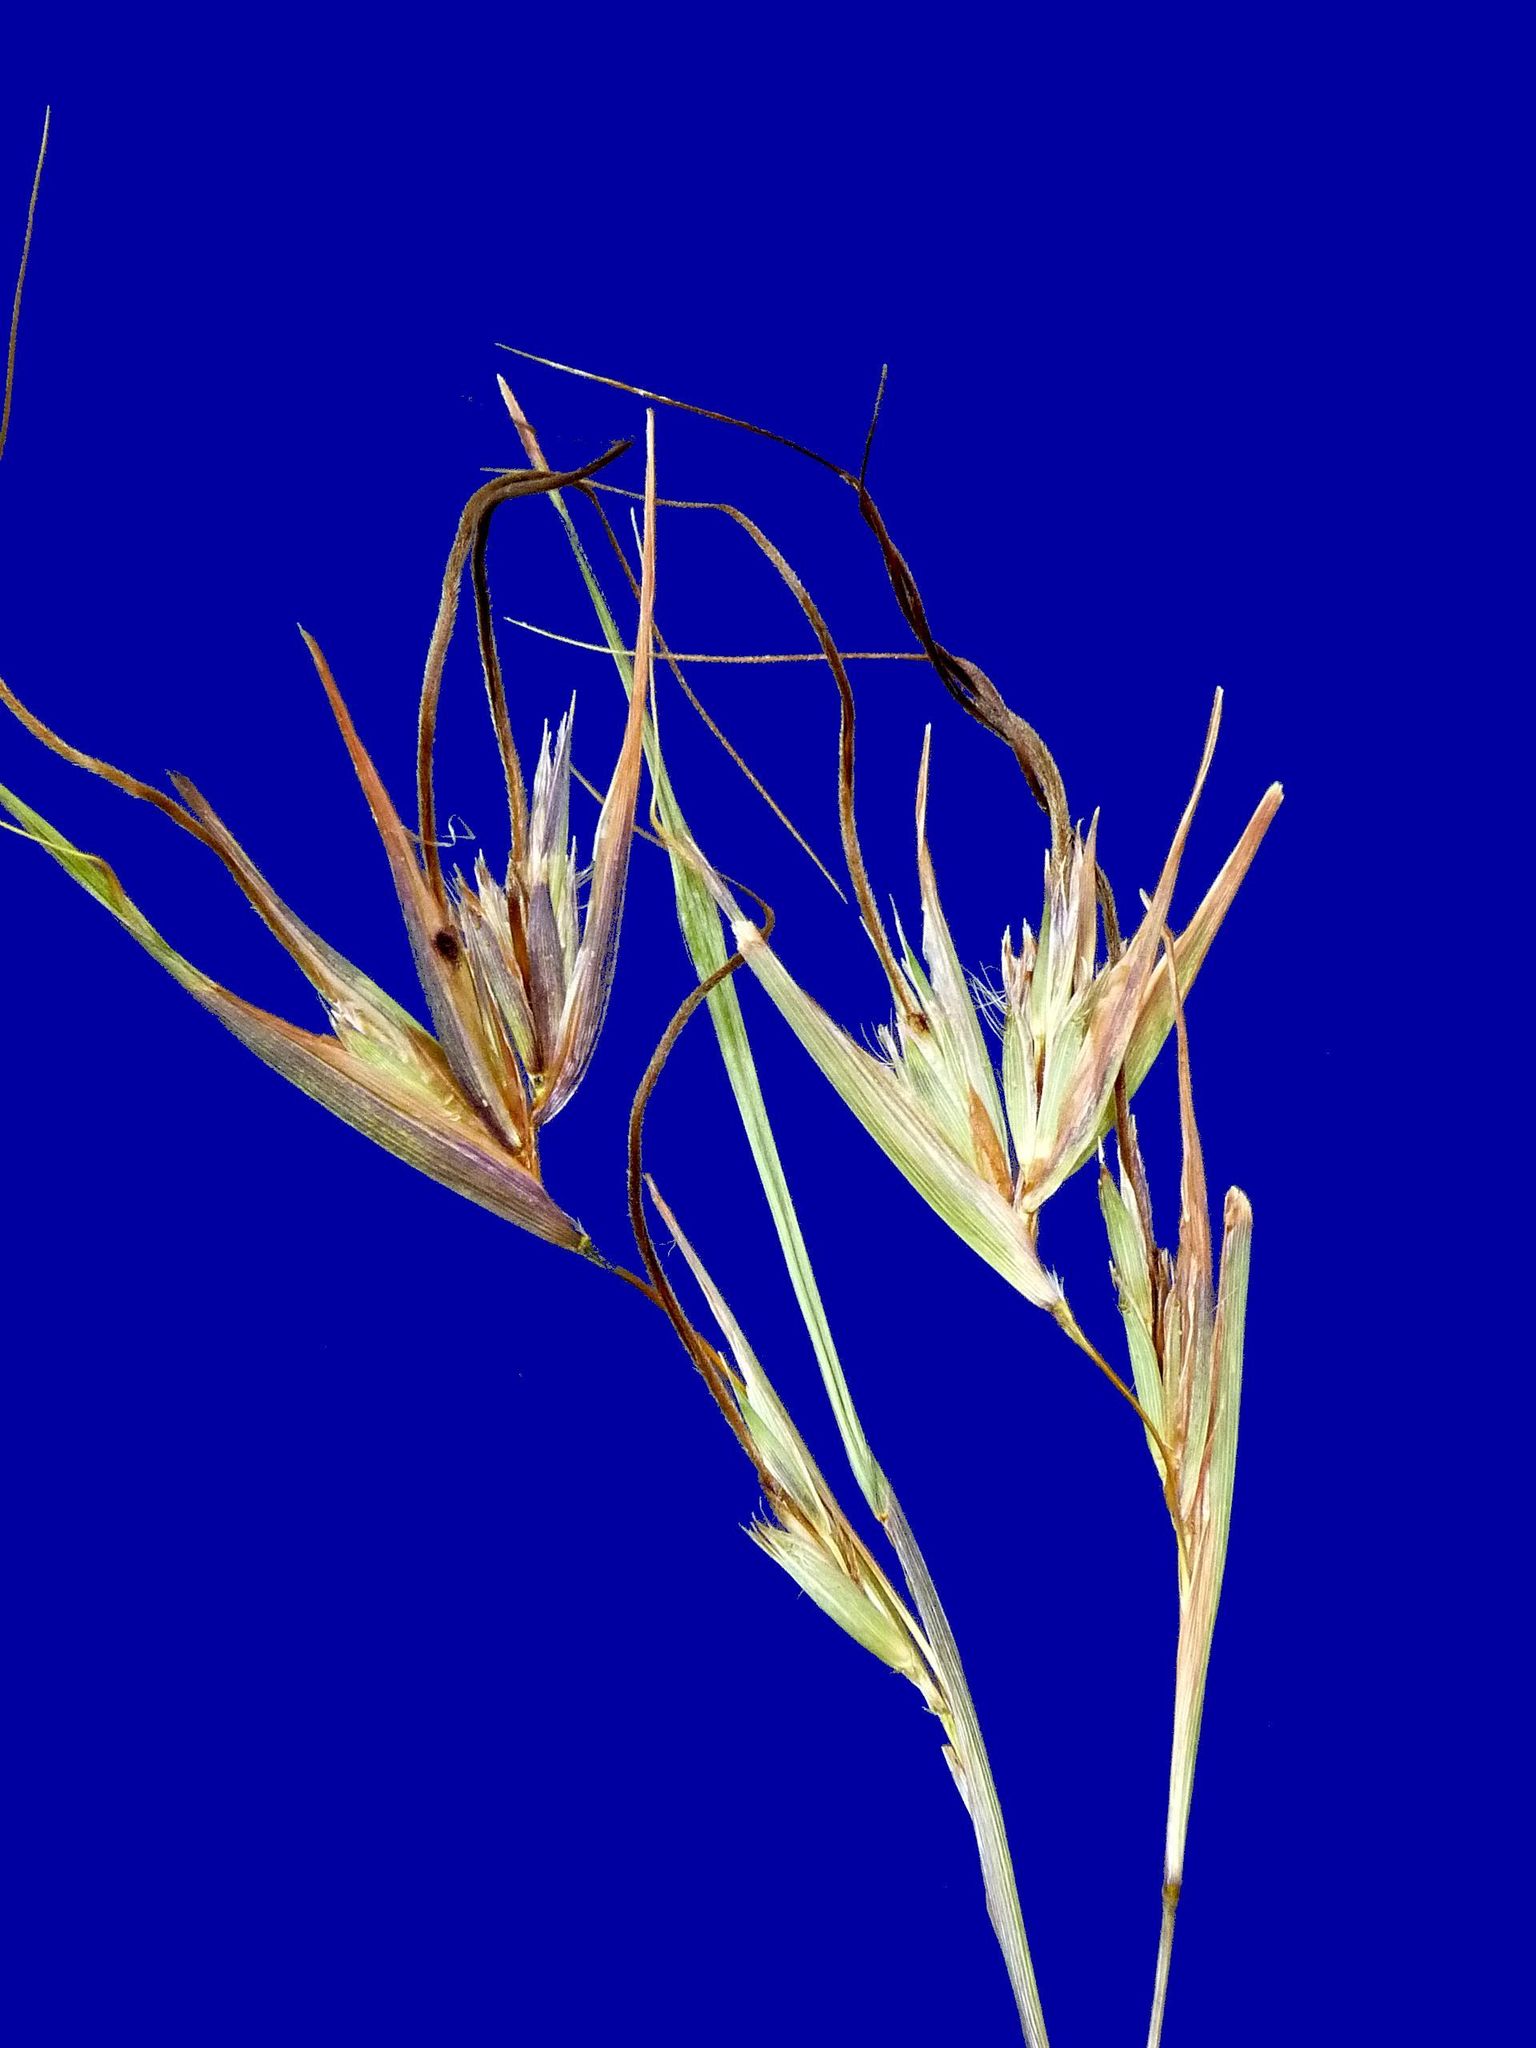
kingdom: Plantae
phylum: Tracheophyta
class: Liliopsida
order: Poales
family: Poaceae
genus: Themeda
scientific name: Themeda triandra
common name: Kangaroo grass
